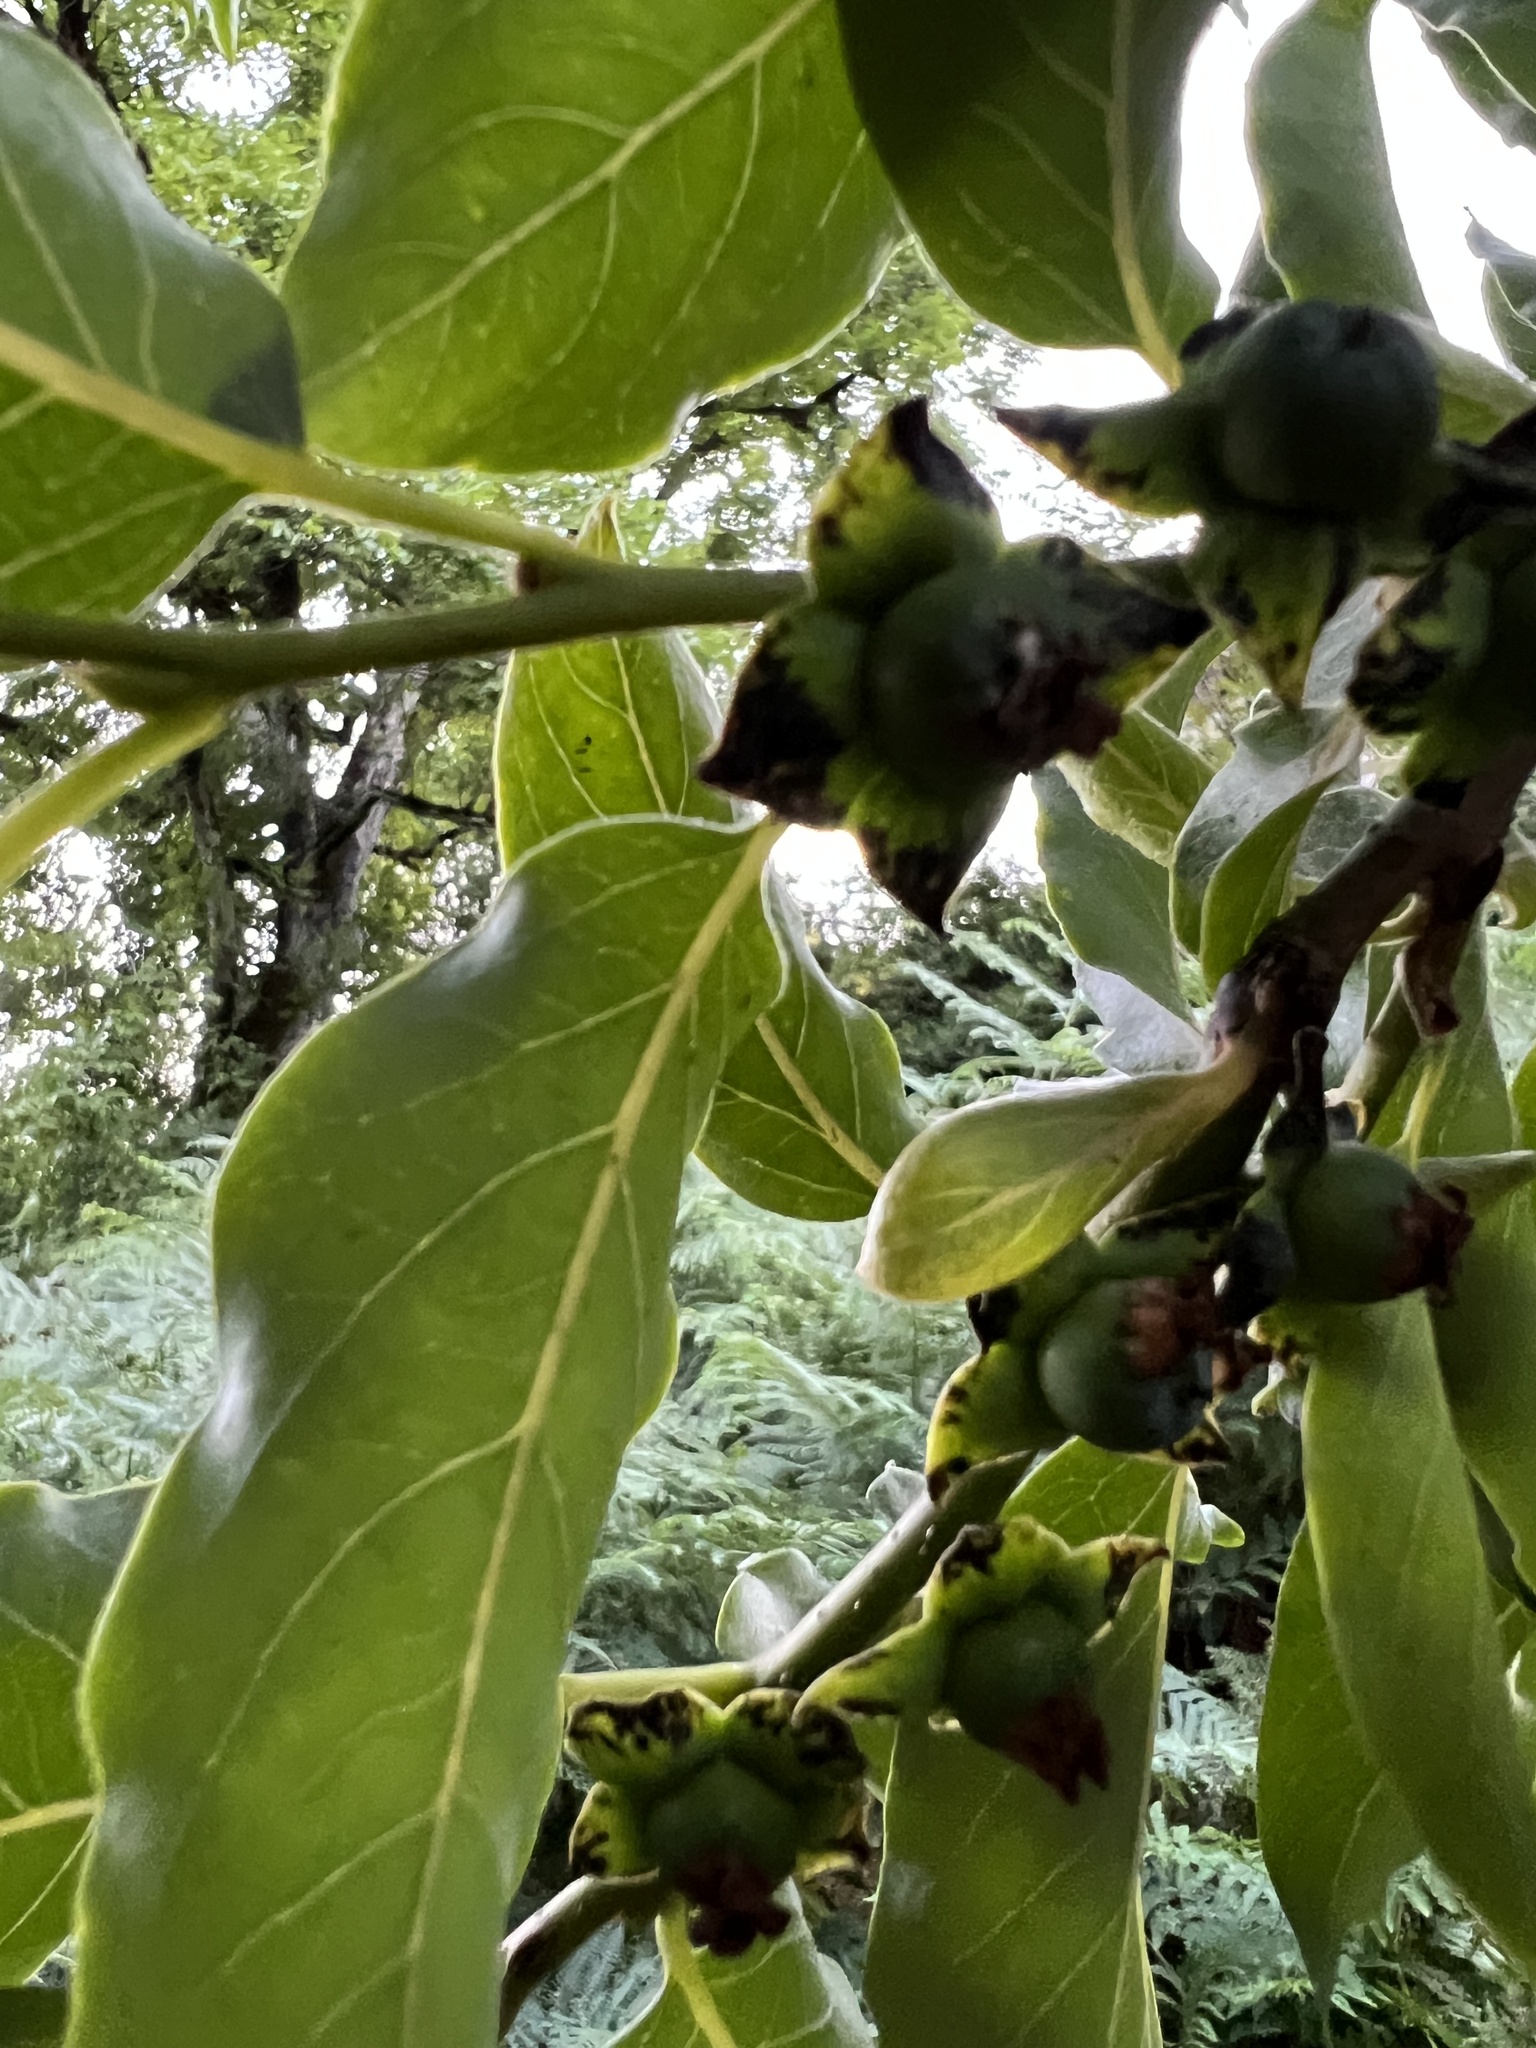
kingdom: Plantae
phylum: Tracheophyta
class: Magnoliopsida
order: Ericales
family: Ebenaceae
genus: Diospyros
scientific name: Diospyros lotus
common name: Date-plum
